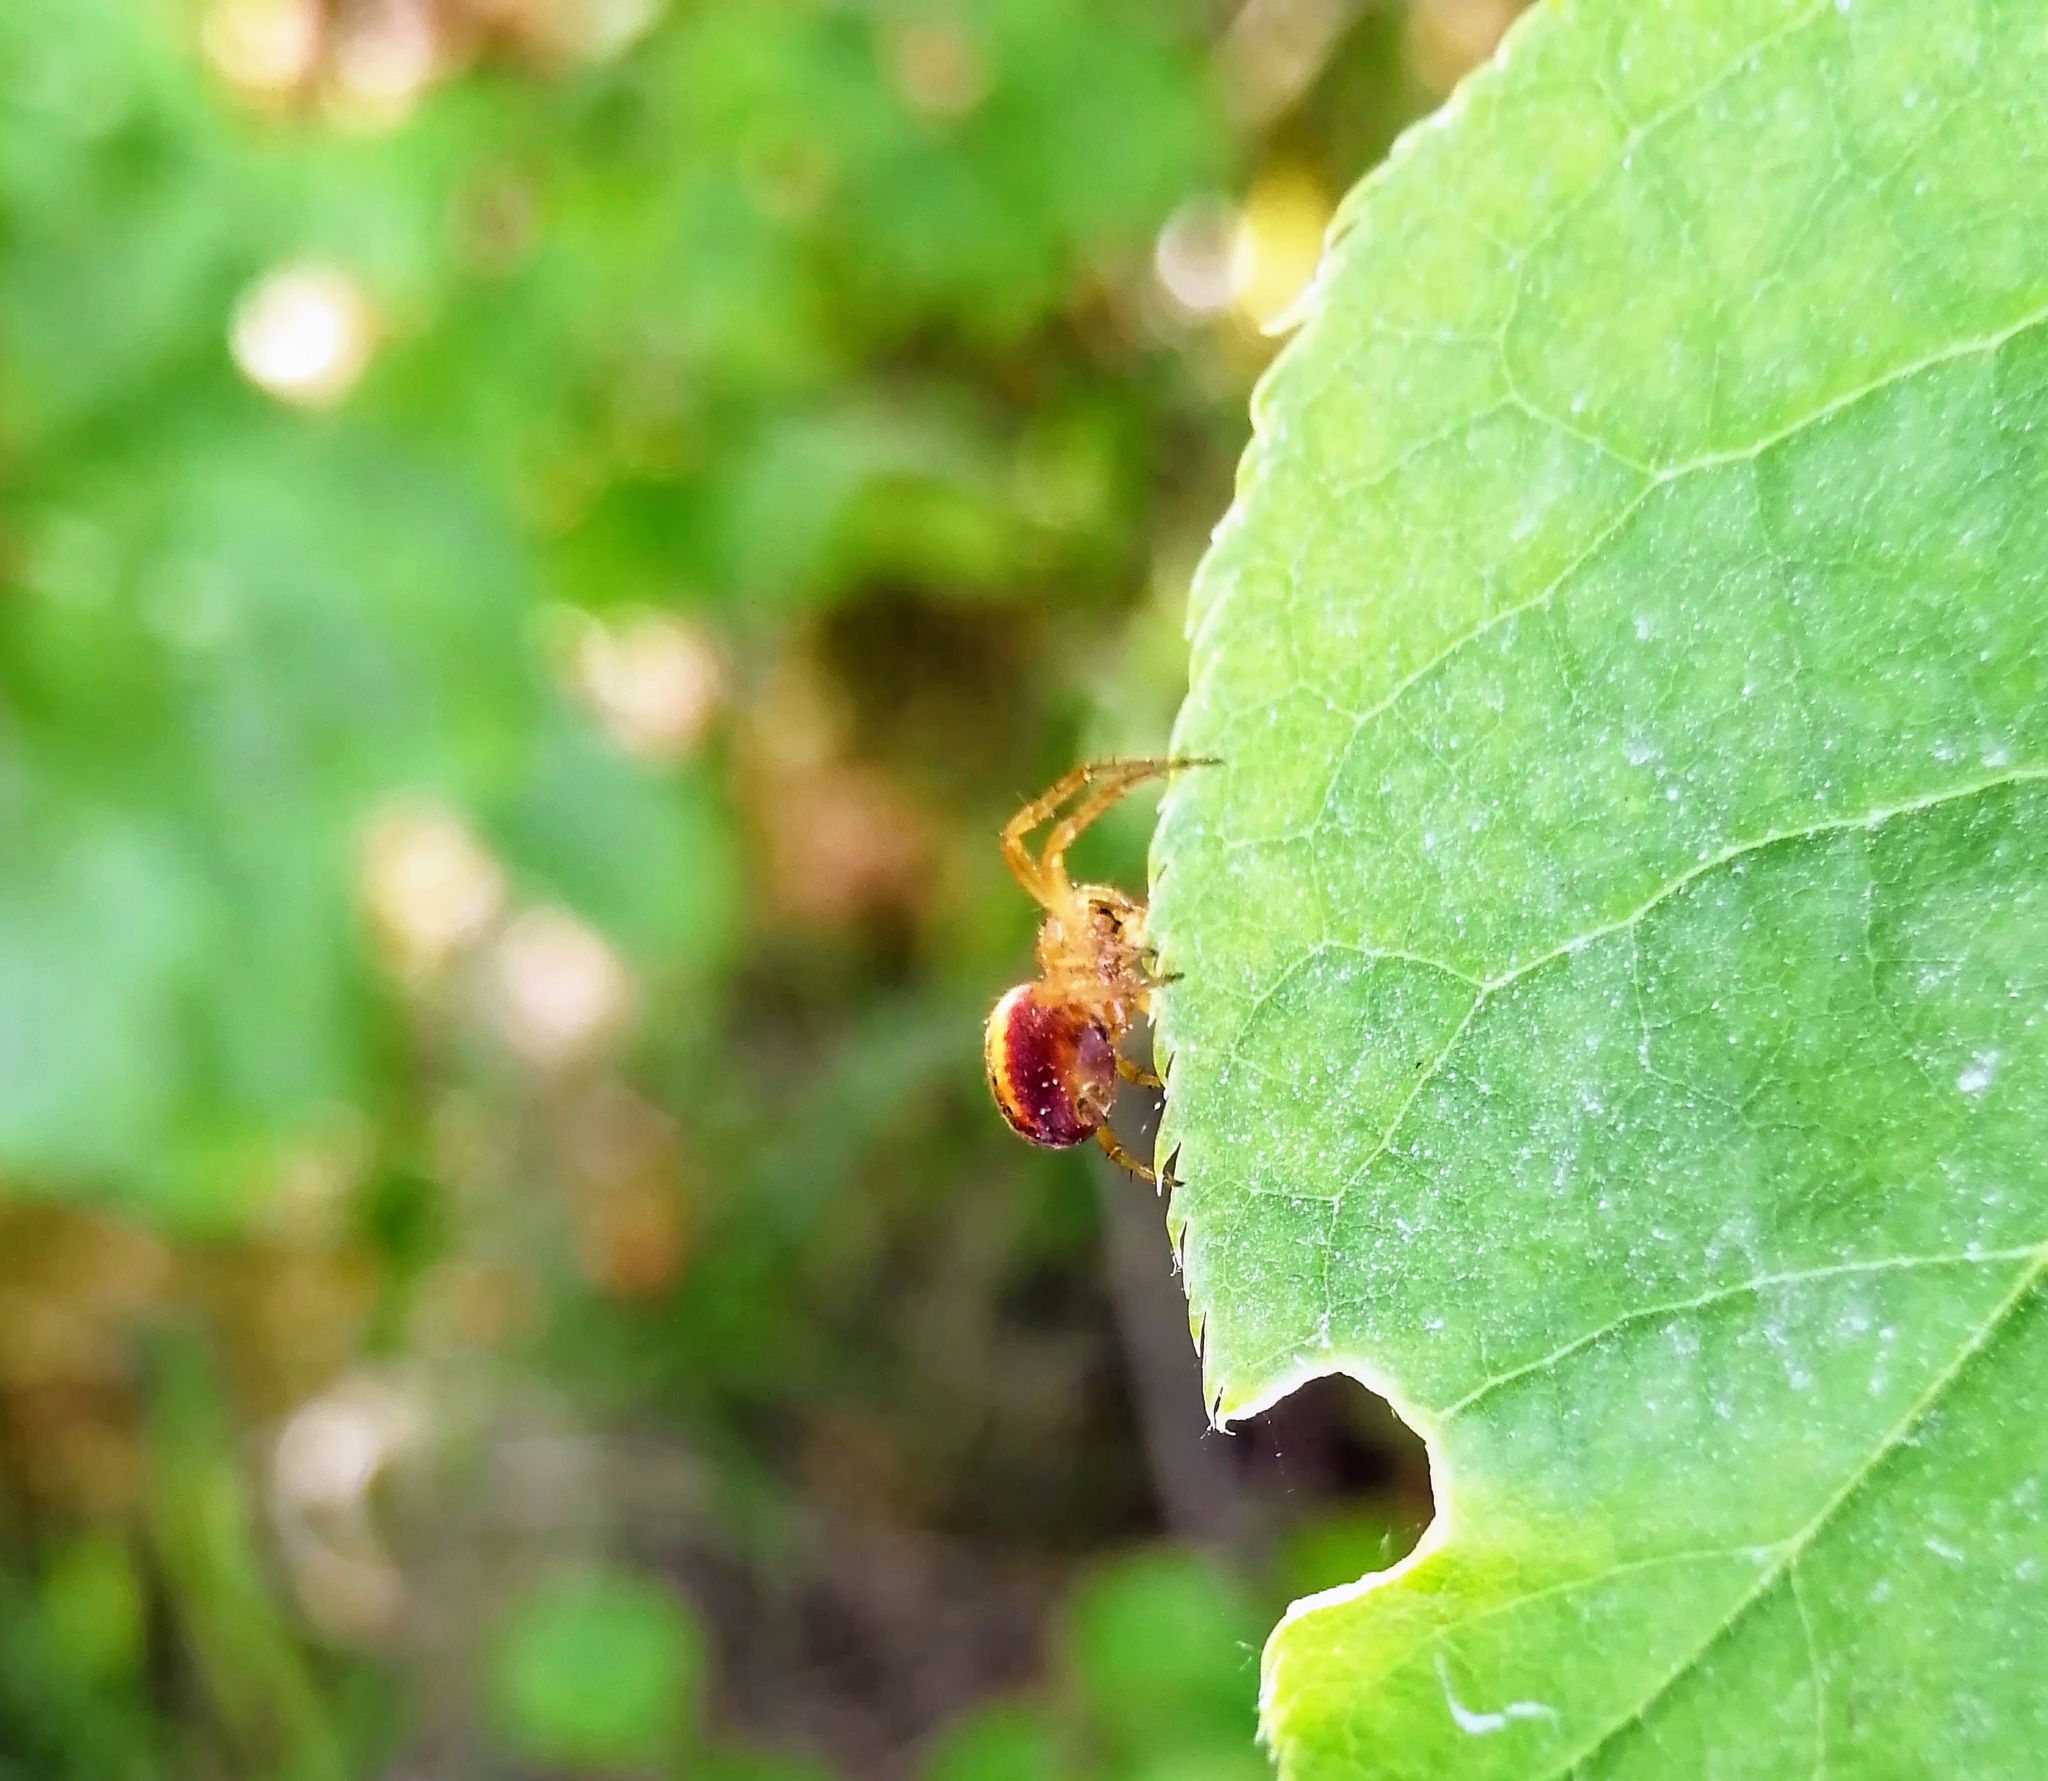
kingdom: Animalia
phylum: Arthropoda
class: Arachnida
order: Araneae
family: Araneidae
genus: Araniella
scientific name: Araniella displicata
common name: Sixspotted orb weaver
